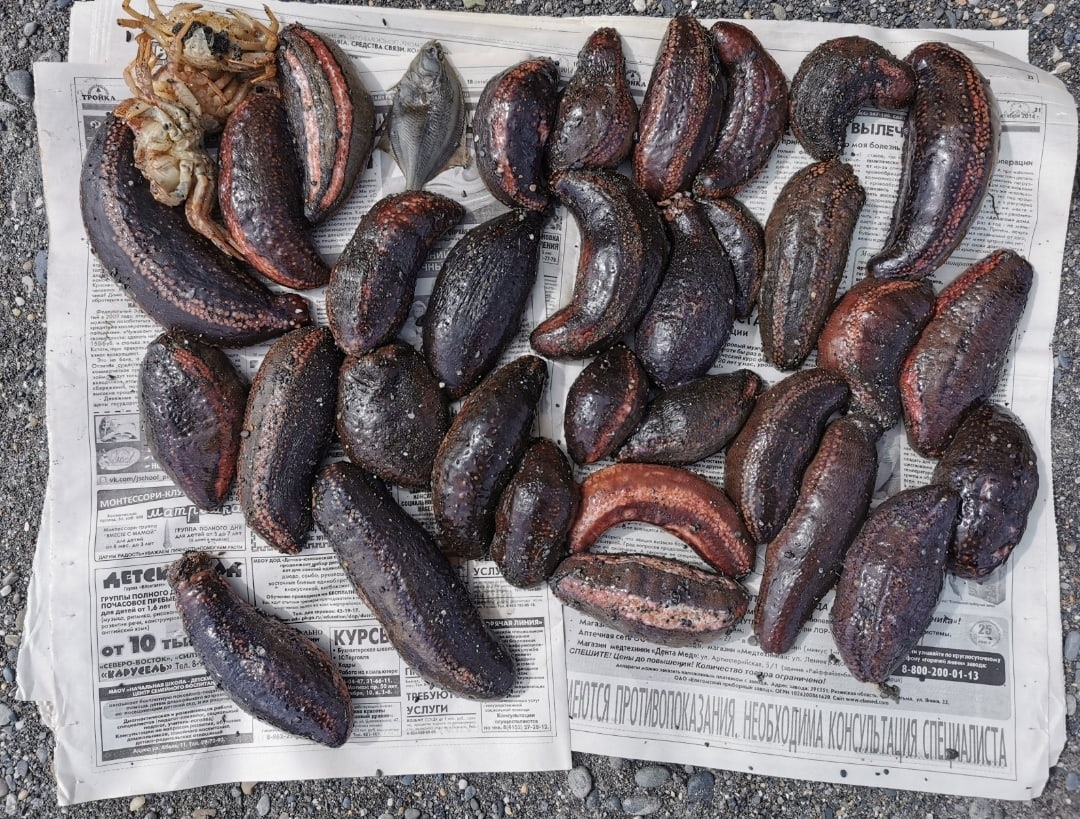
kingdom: Animalia
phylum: Echinodermata
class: Holothuroidea
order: Dendrochirotida
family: Cucumariidae
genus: Cucumaria
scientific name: Cucumaria okhotensis
